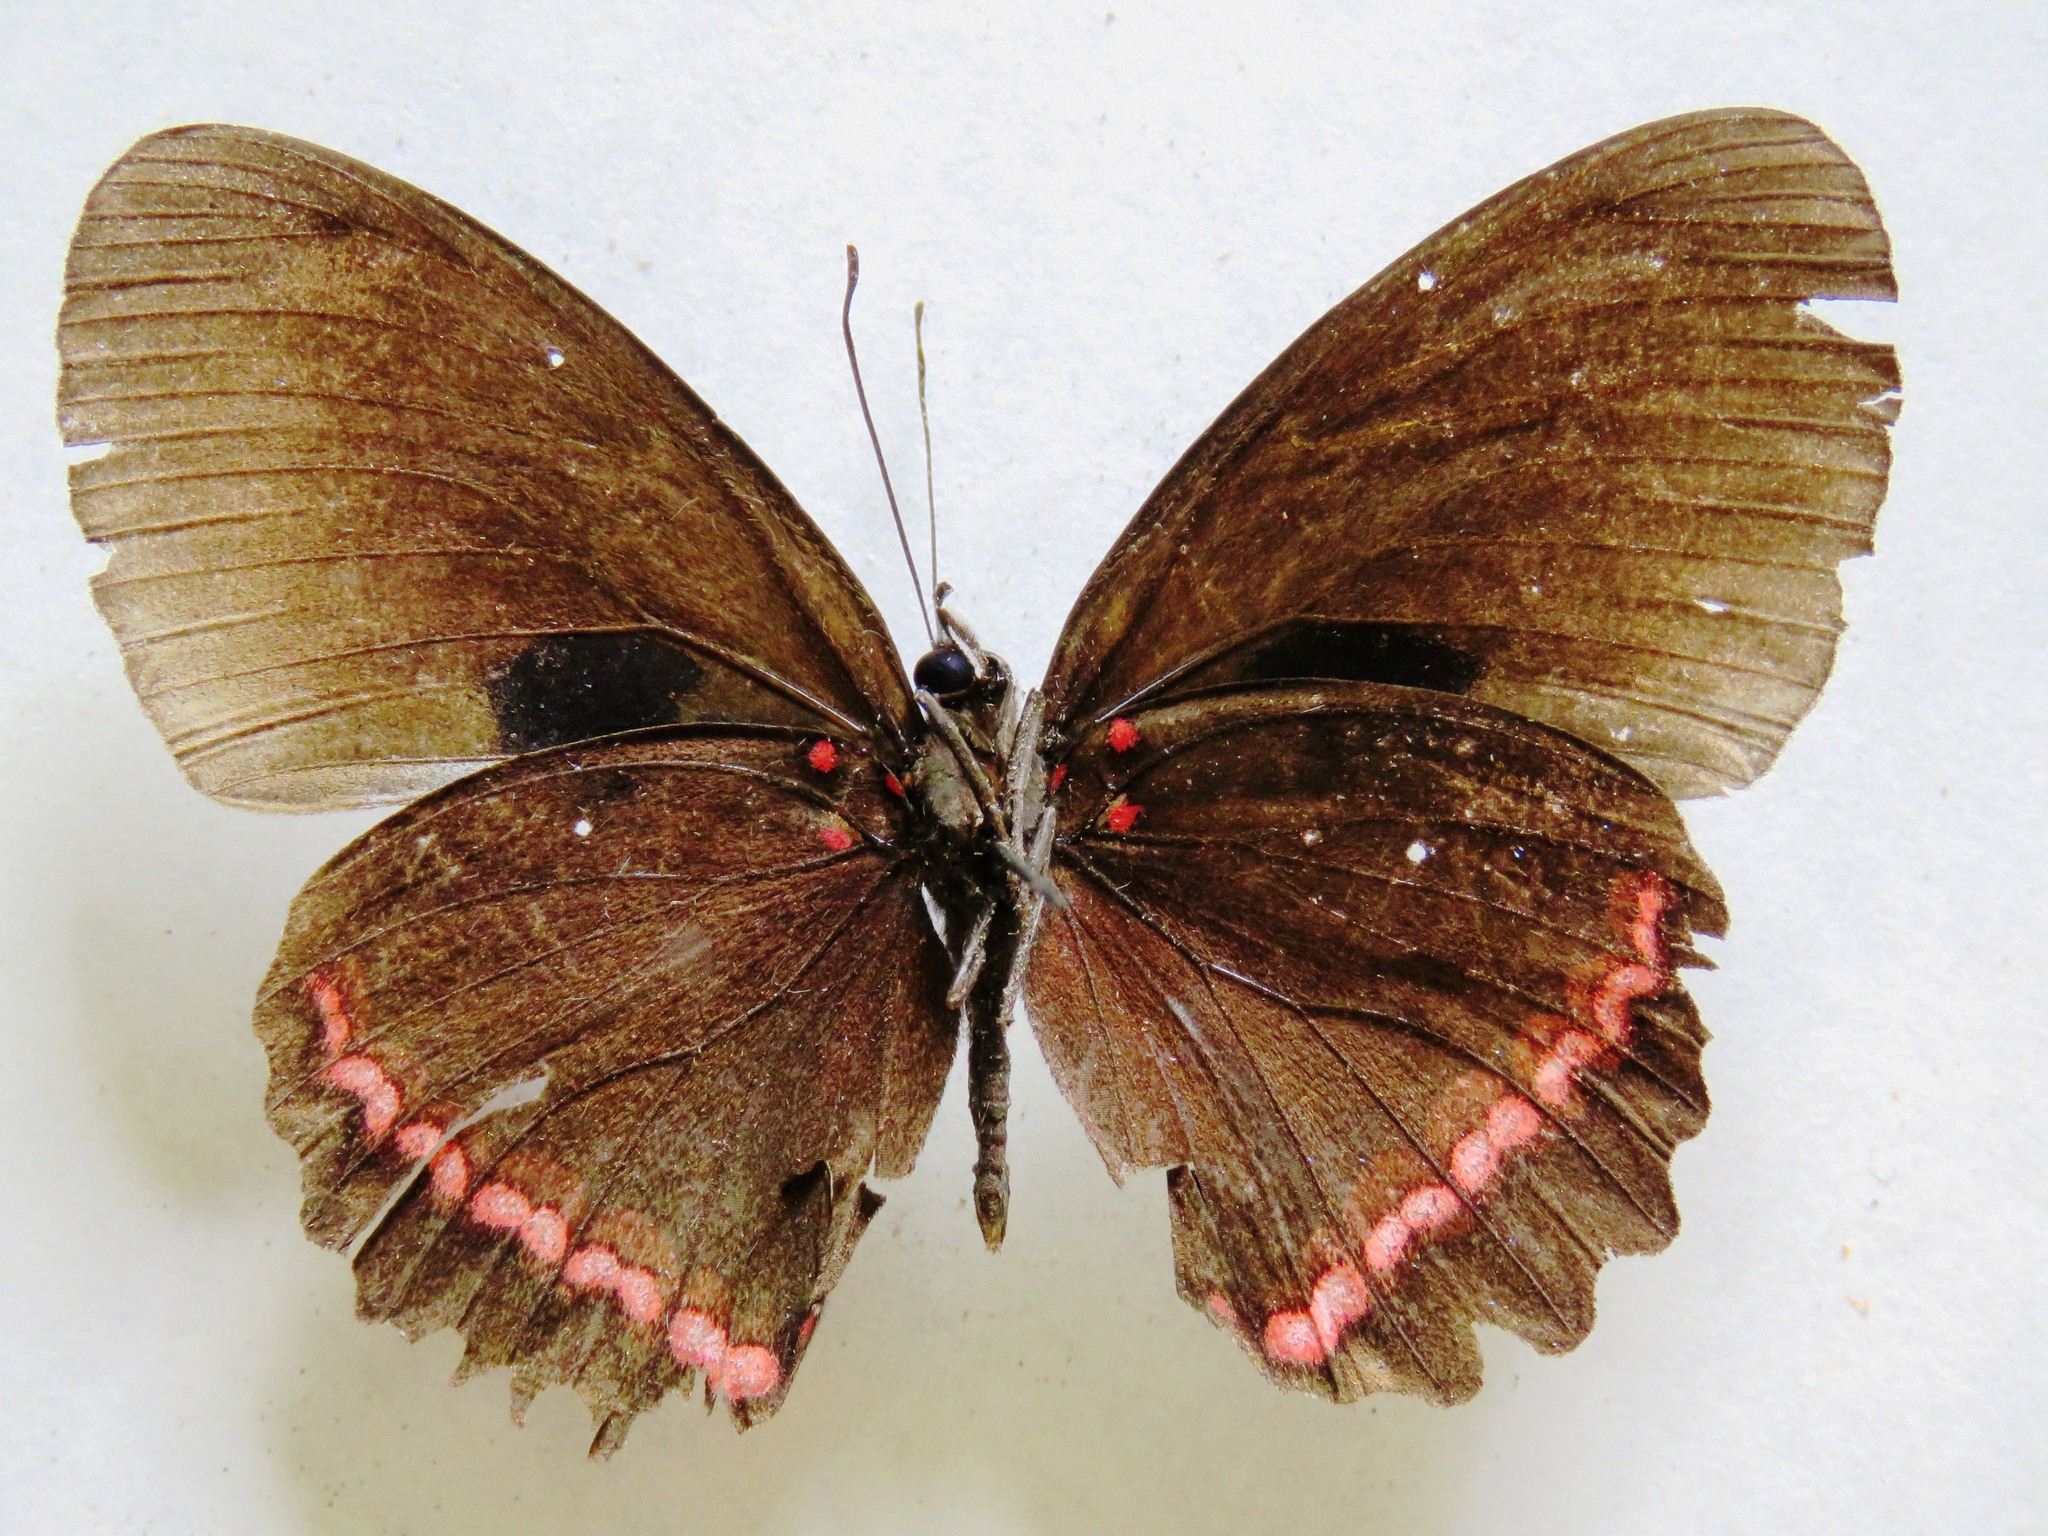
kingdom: Animalia
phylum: Arthropoda
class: Insecta
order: Lepidoptera
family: Nymphalidae
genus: Biblis
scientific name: Biblis aganisa
